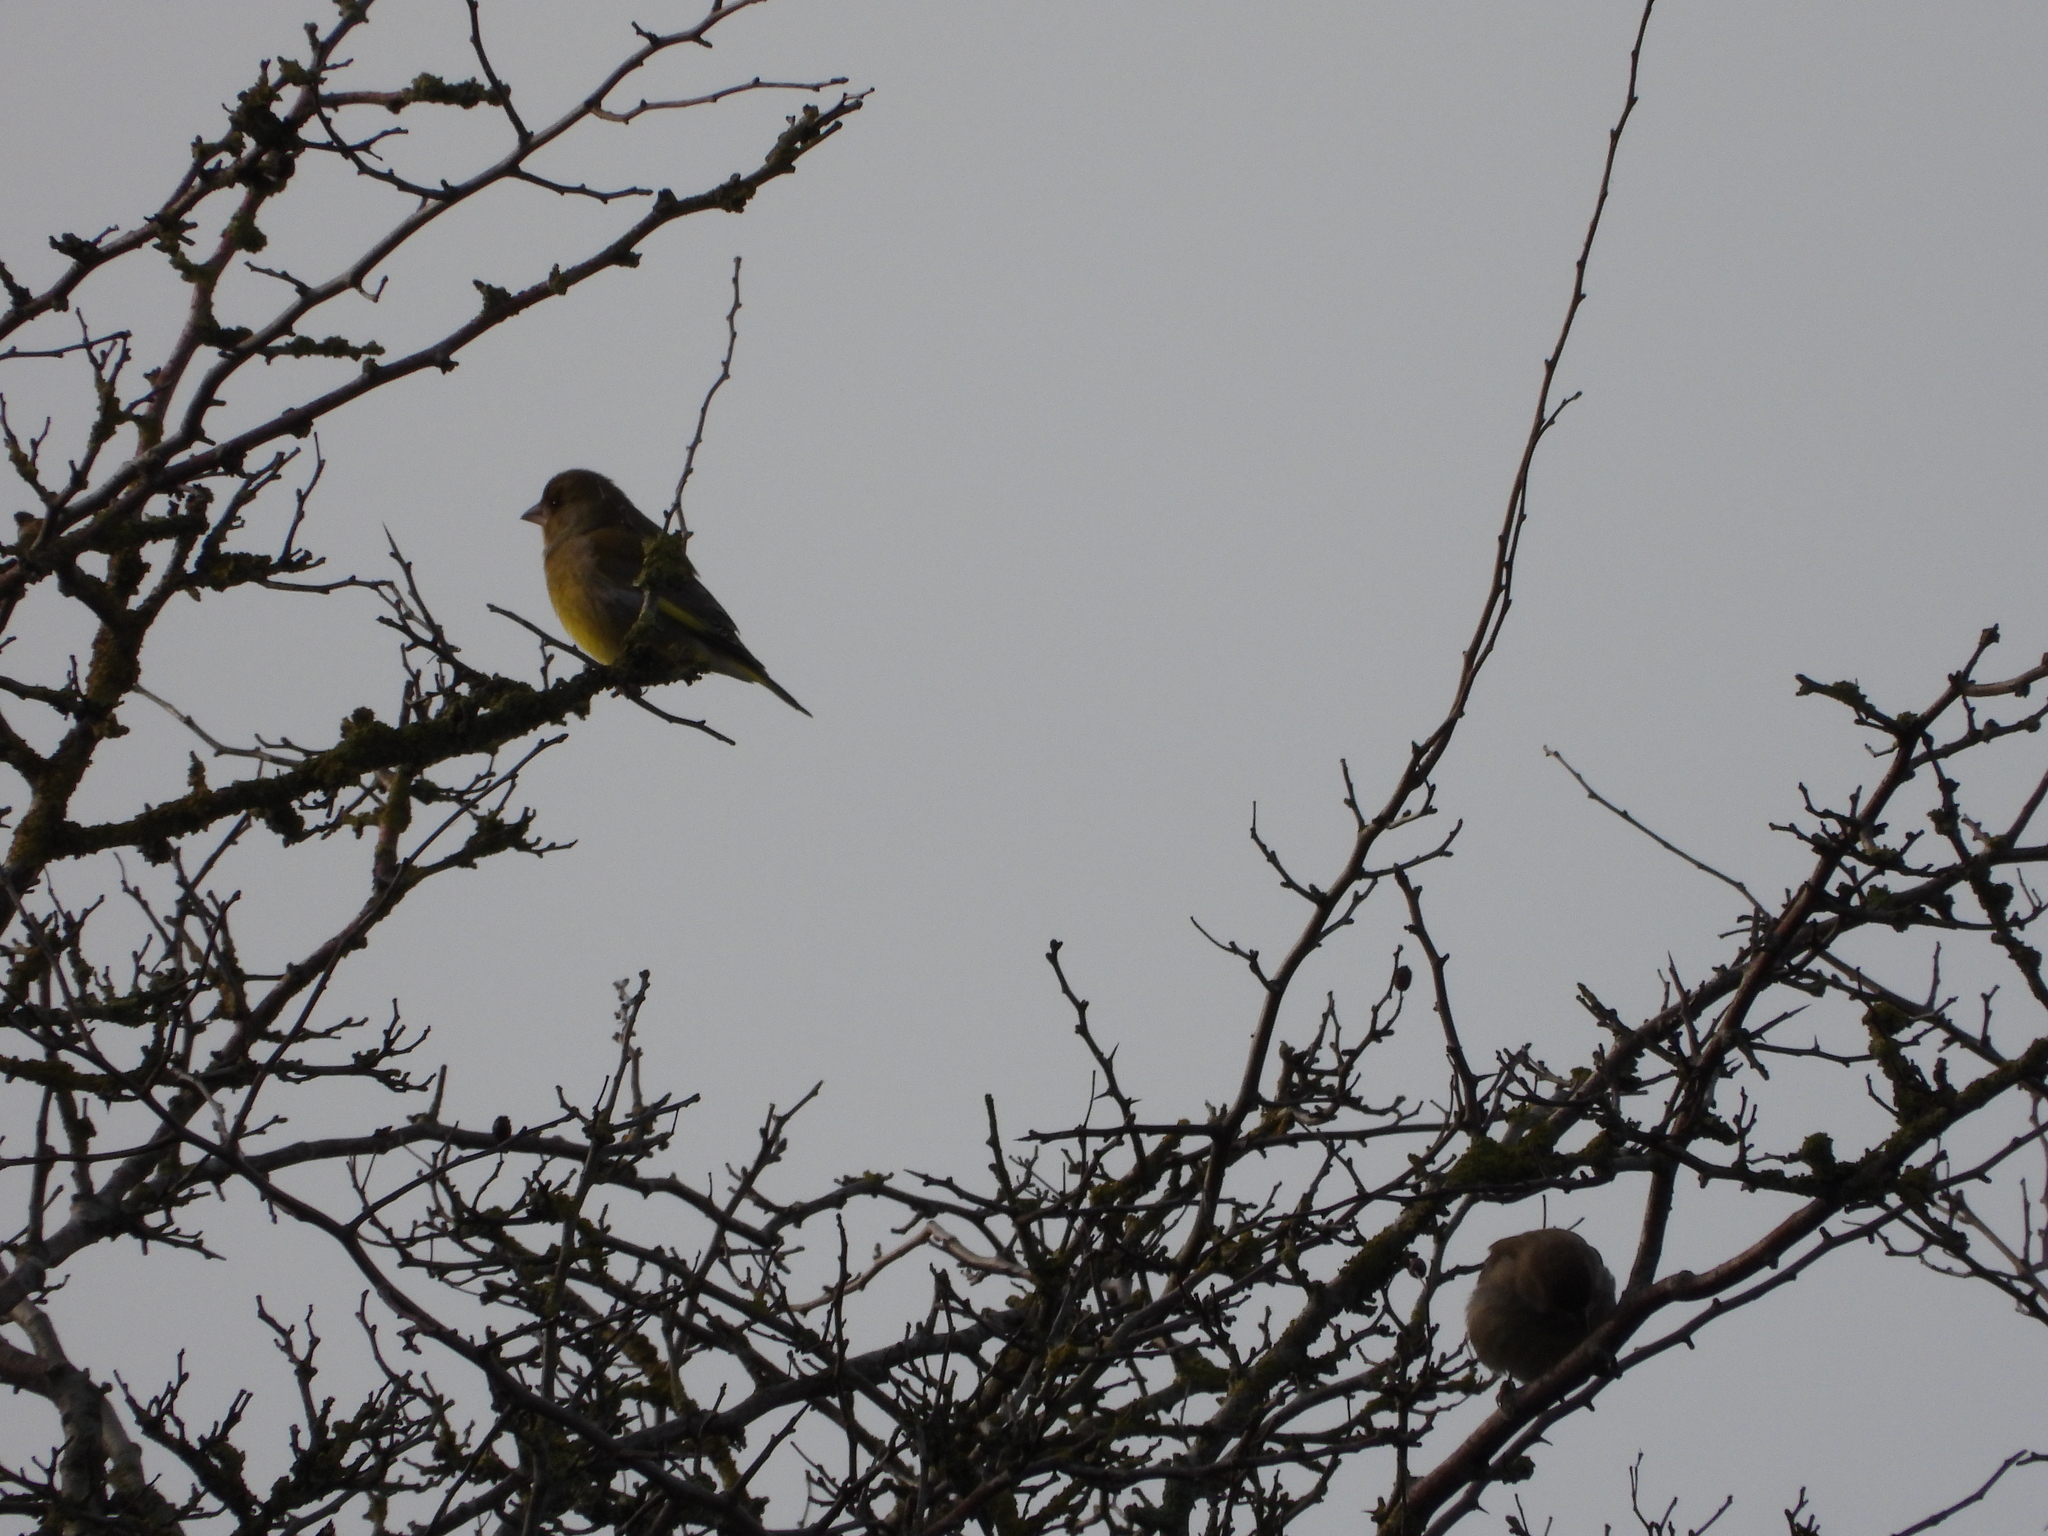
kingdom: Plantae
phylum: Tracheophyta
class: Liliopsida
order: Poales
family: Poaceae
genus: Chloris
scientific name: Chloris chloris
